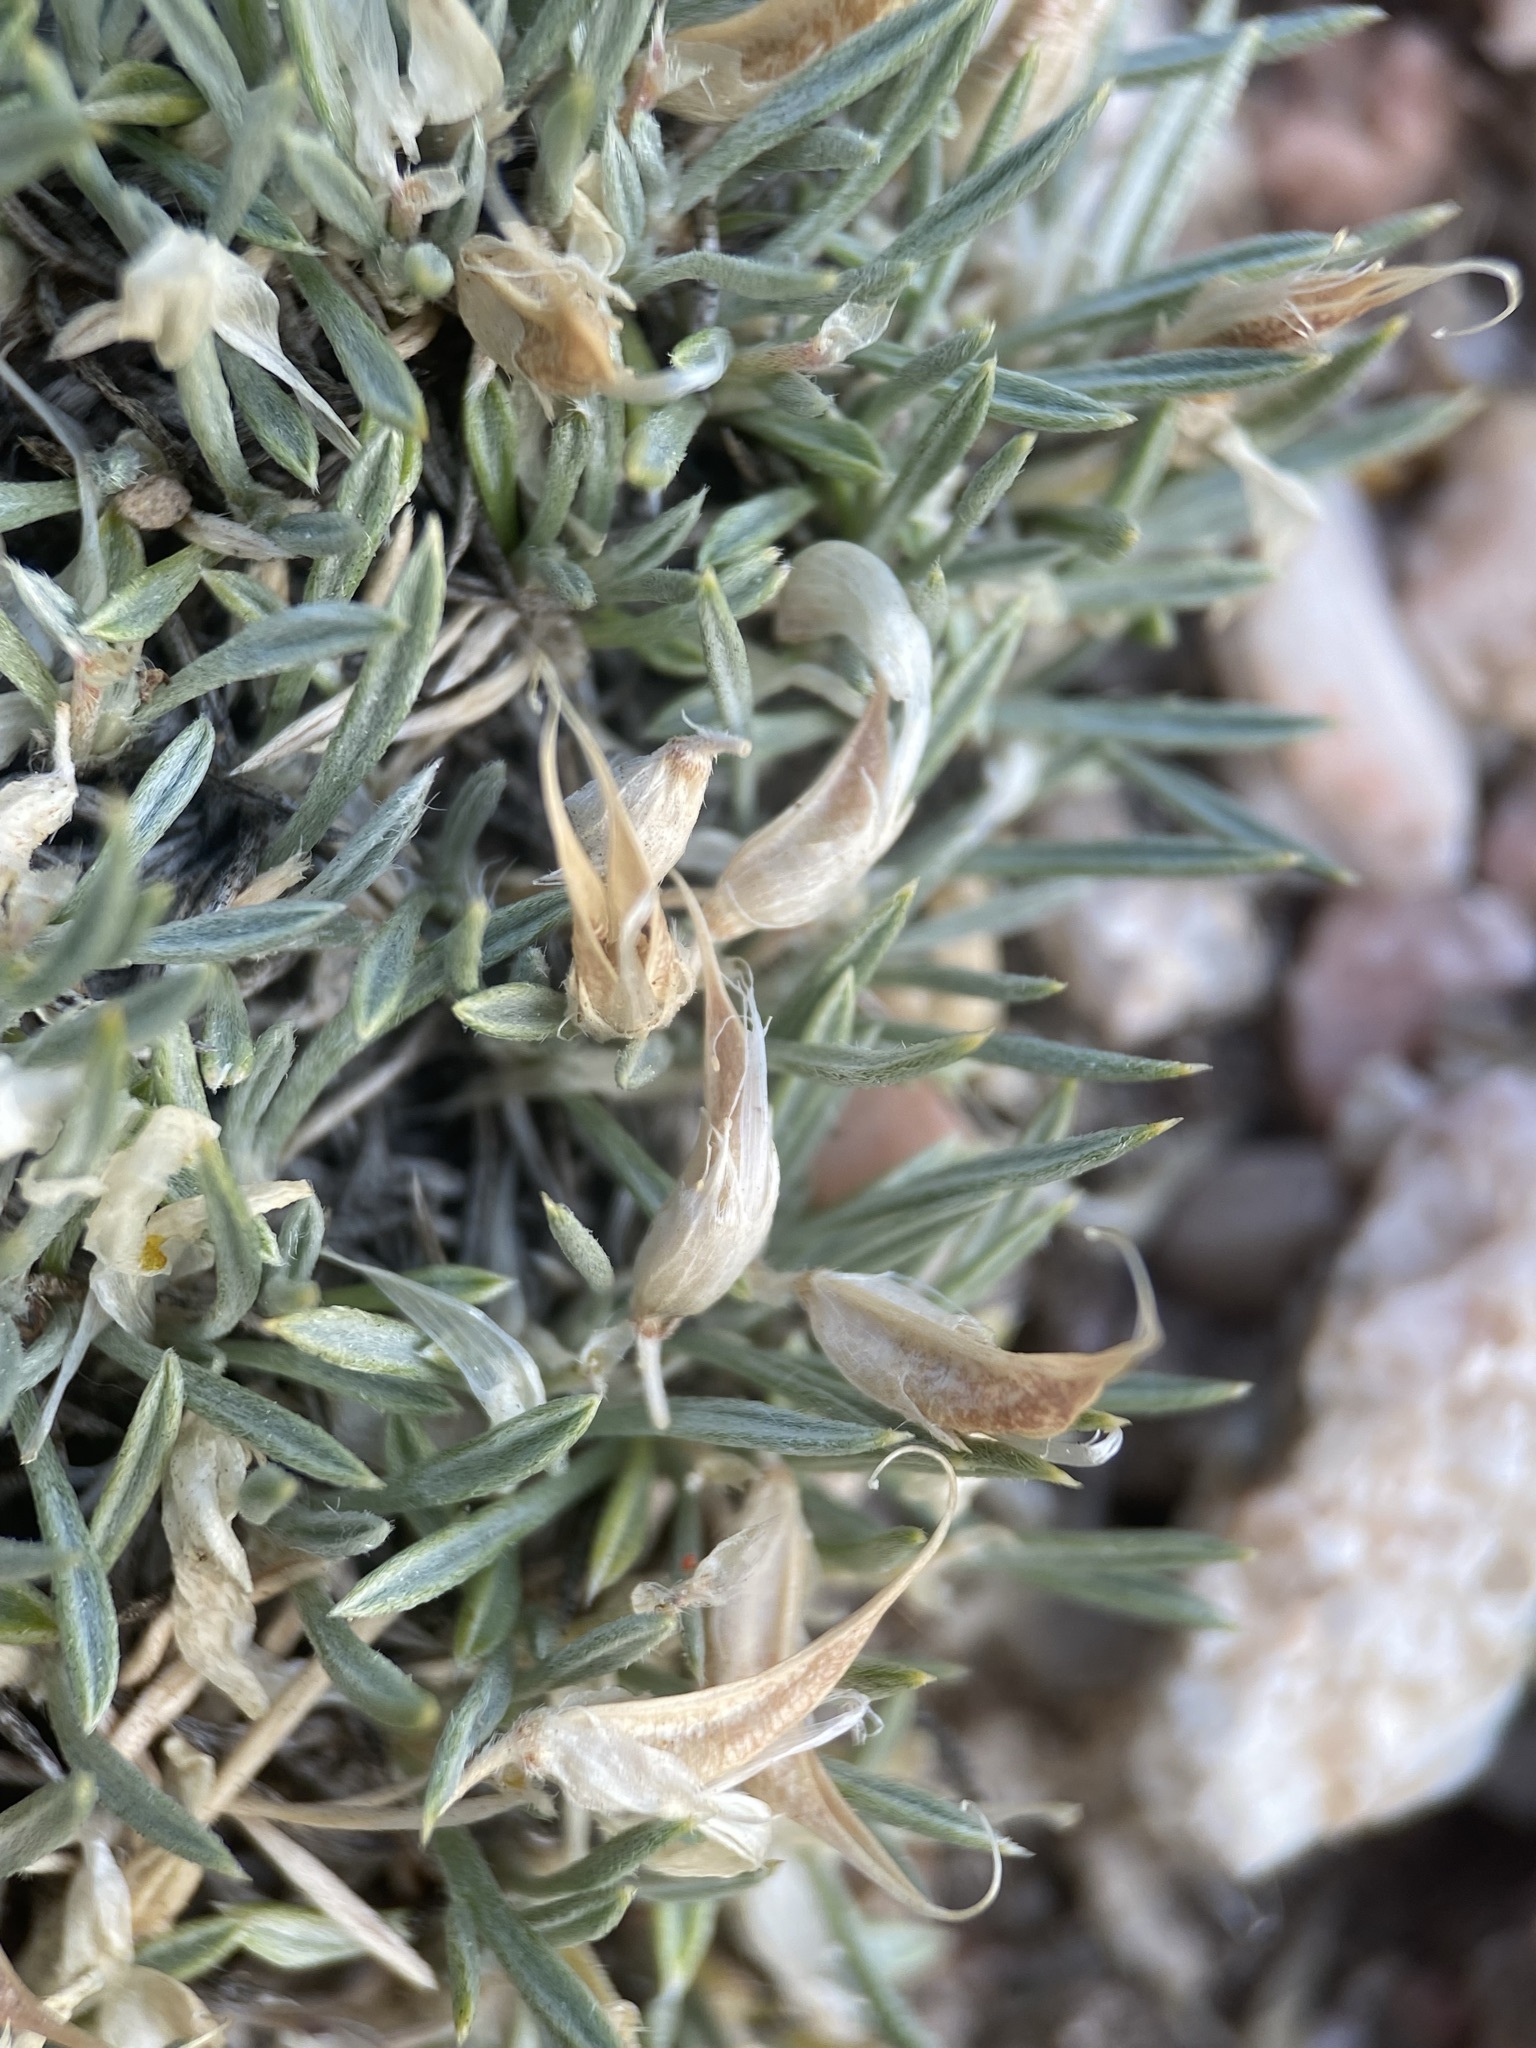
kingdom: Plantae
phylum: Tracheophyta
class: Magnoliopsida
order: Fabales
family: Fabaceae
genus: Astragalus
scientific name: Astragalus simplicifolius
